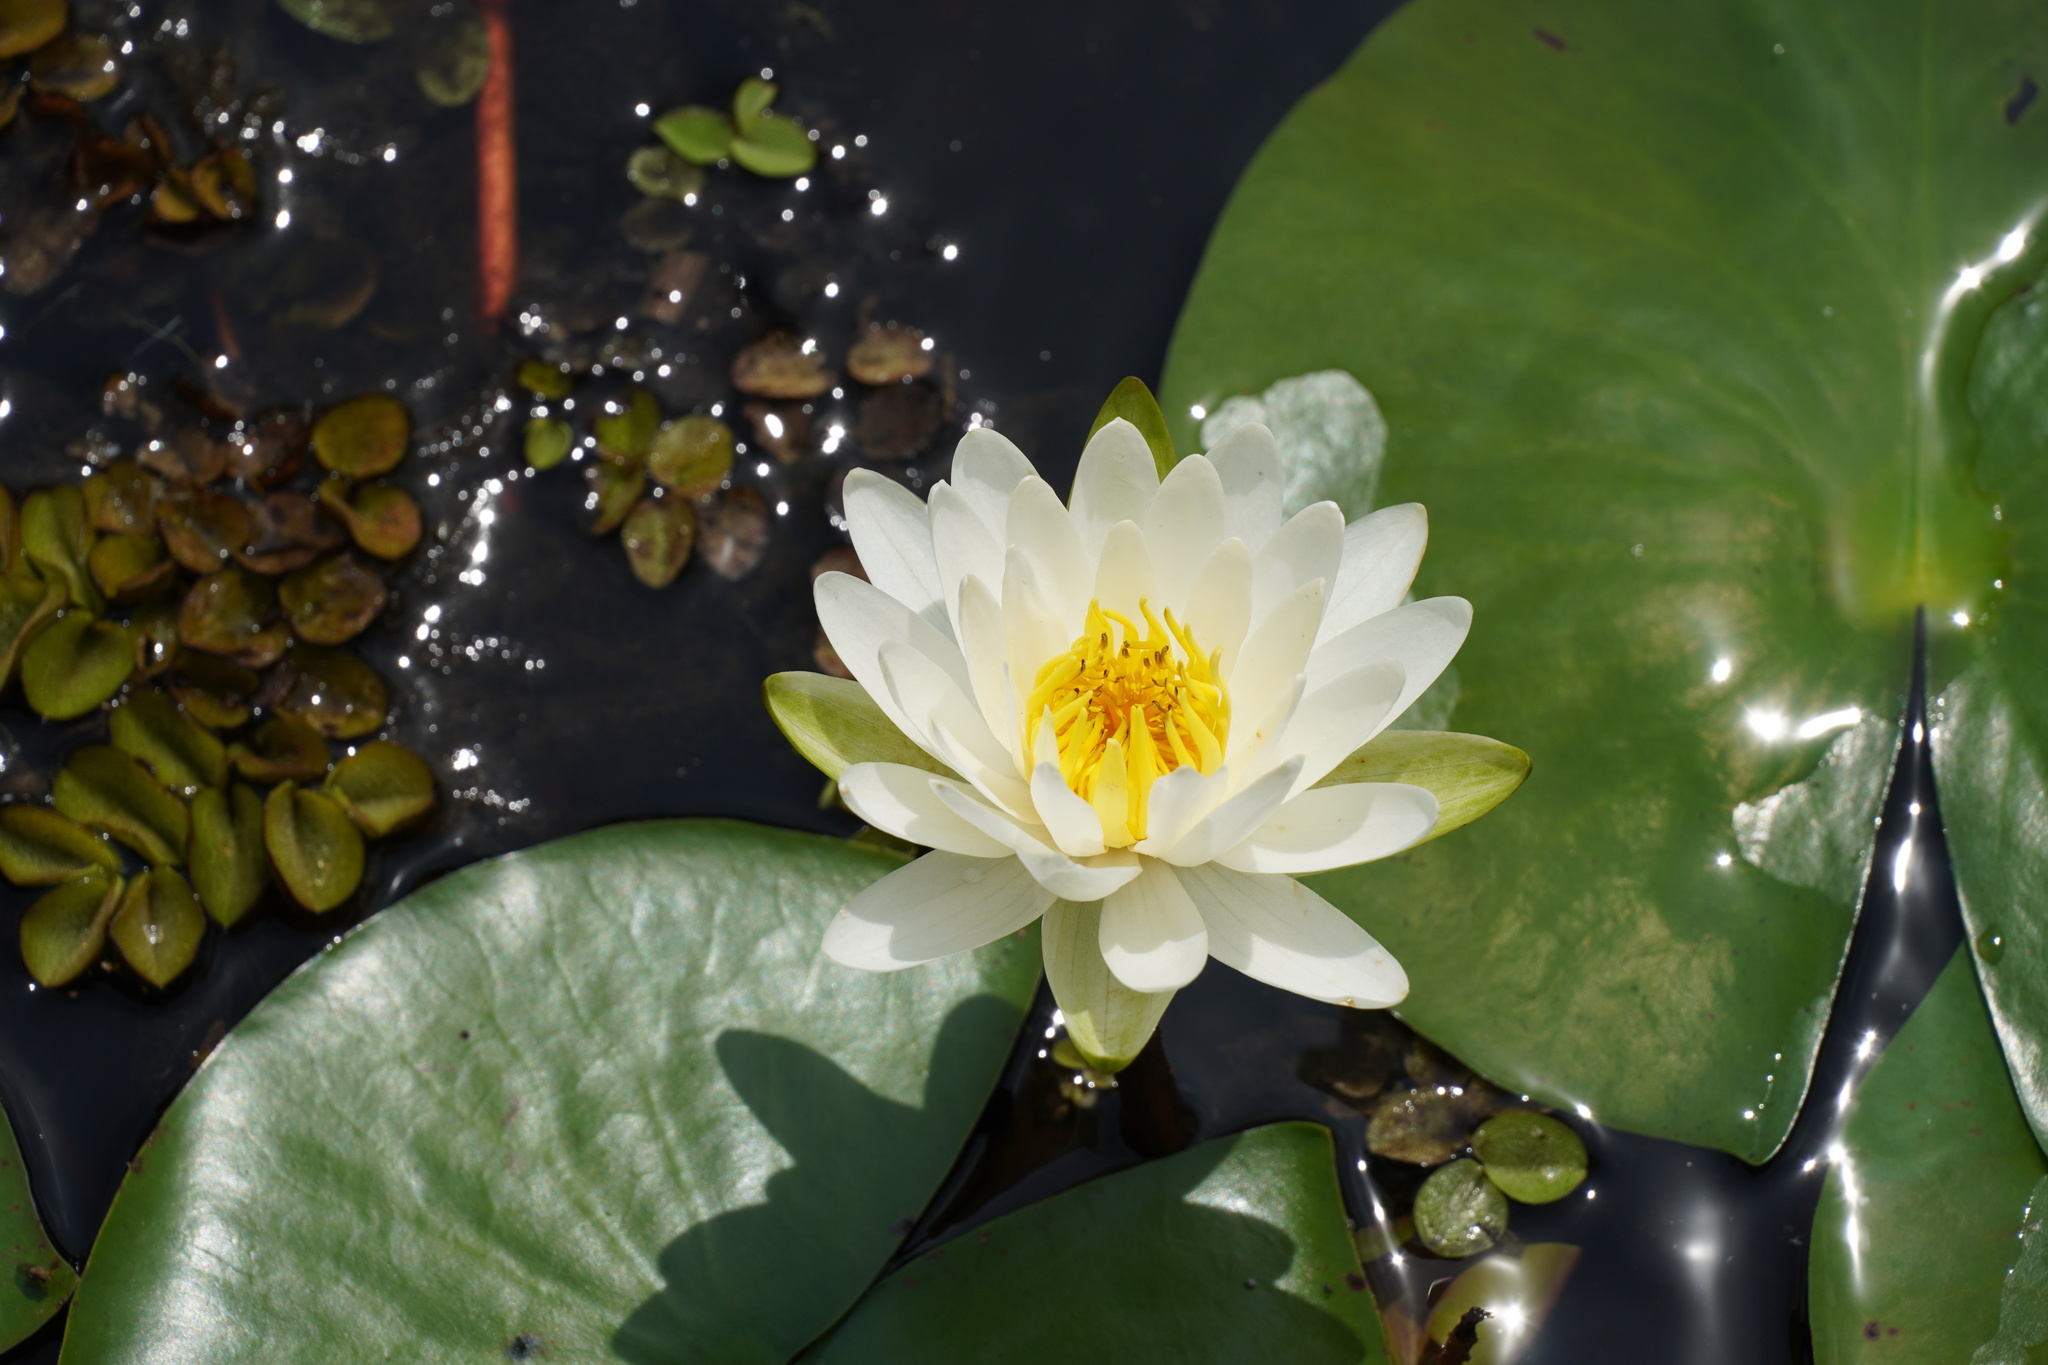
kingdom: Plantae
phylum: Tracheophyta
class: Magnoliopsida
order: Nymphaeales
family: Nymphaeaceae
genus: Nymphaea
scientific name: Nymphaea odorata
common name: Fragrant water-lily
